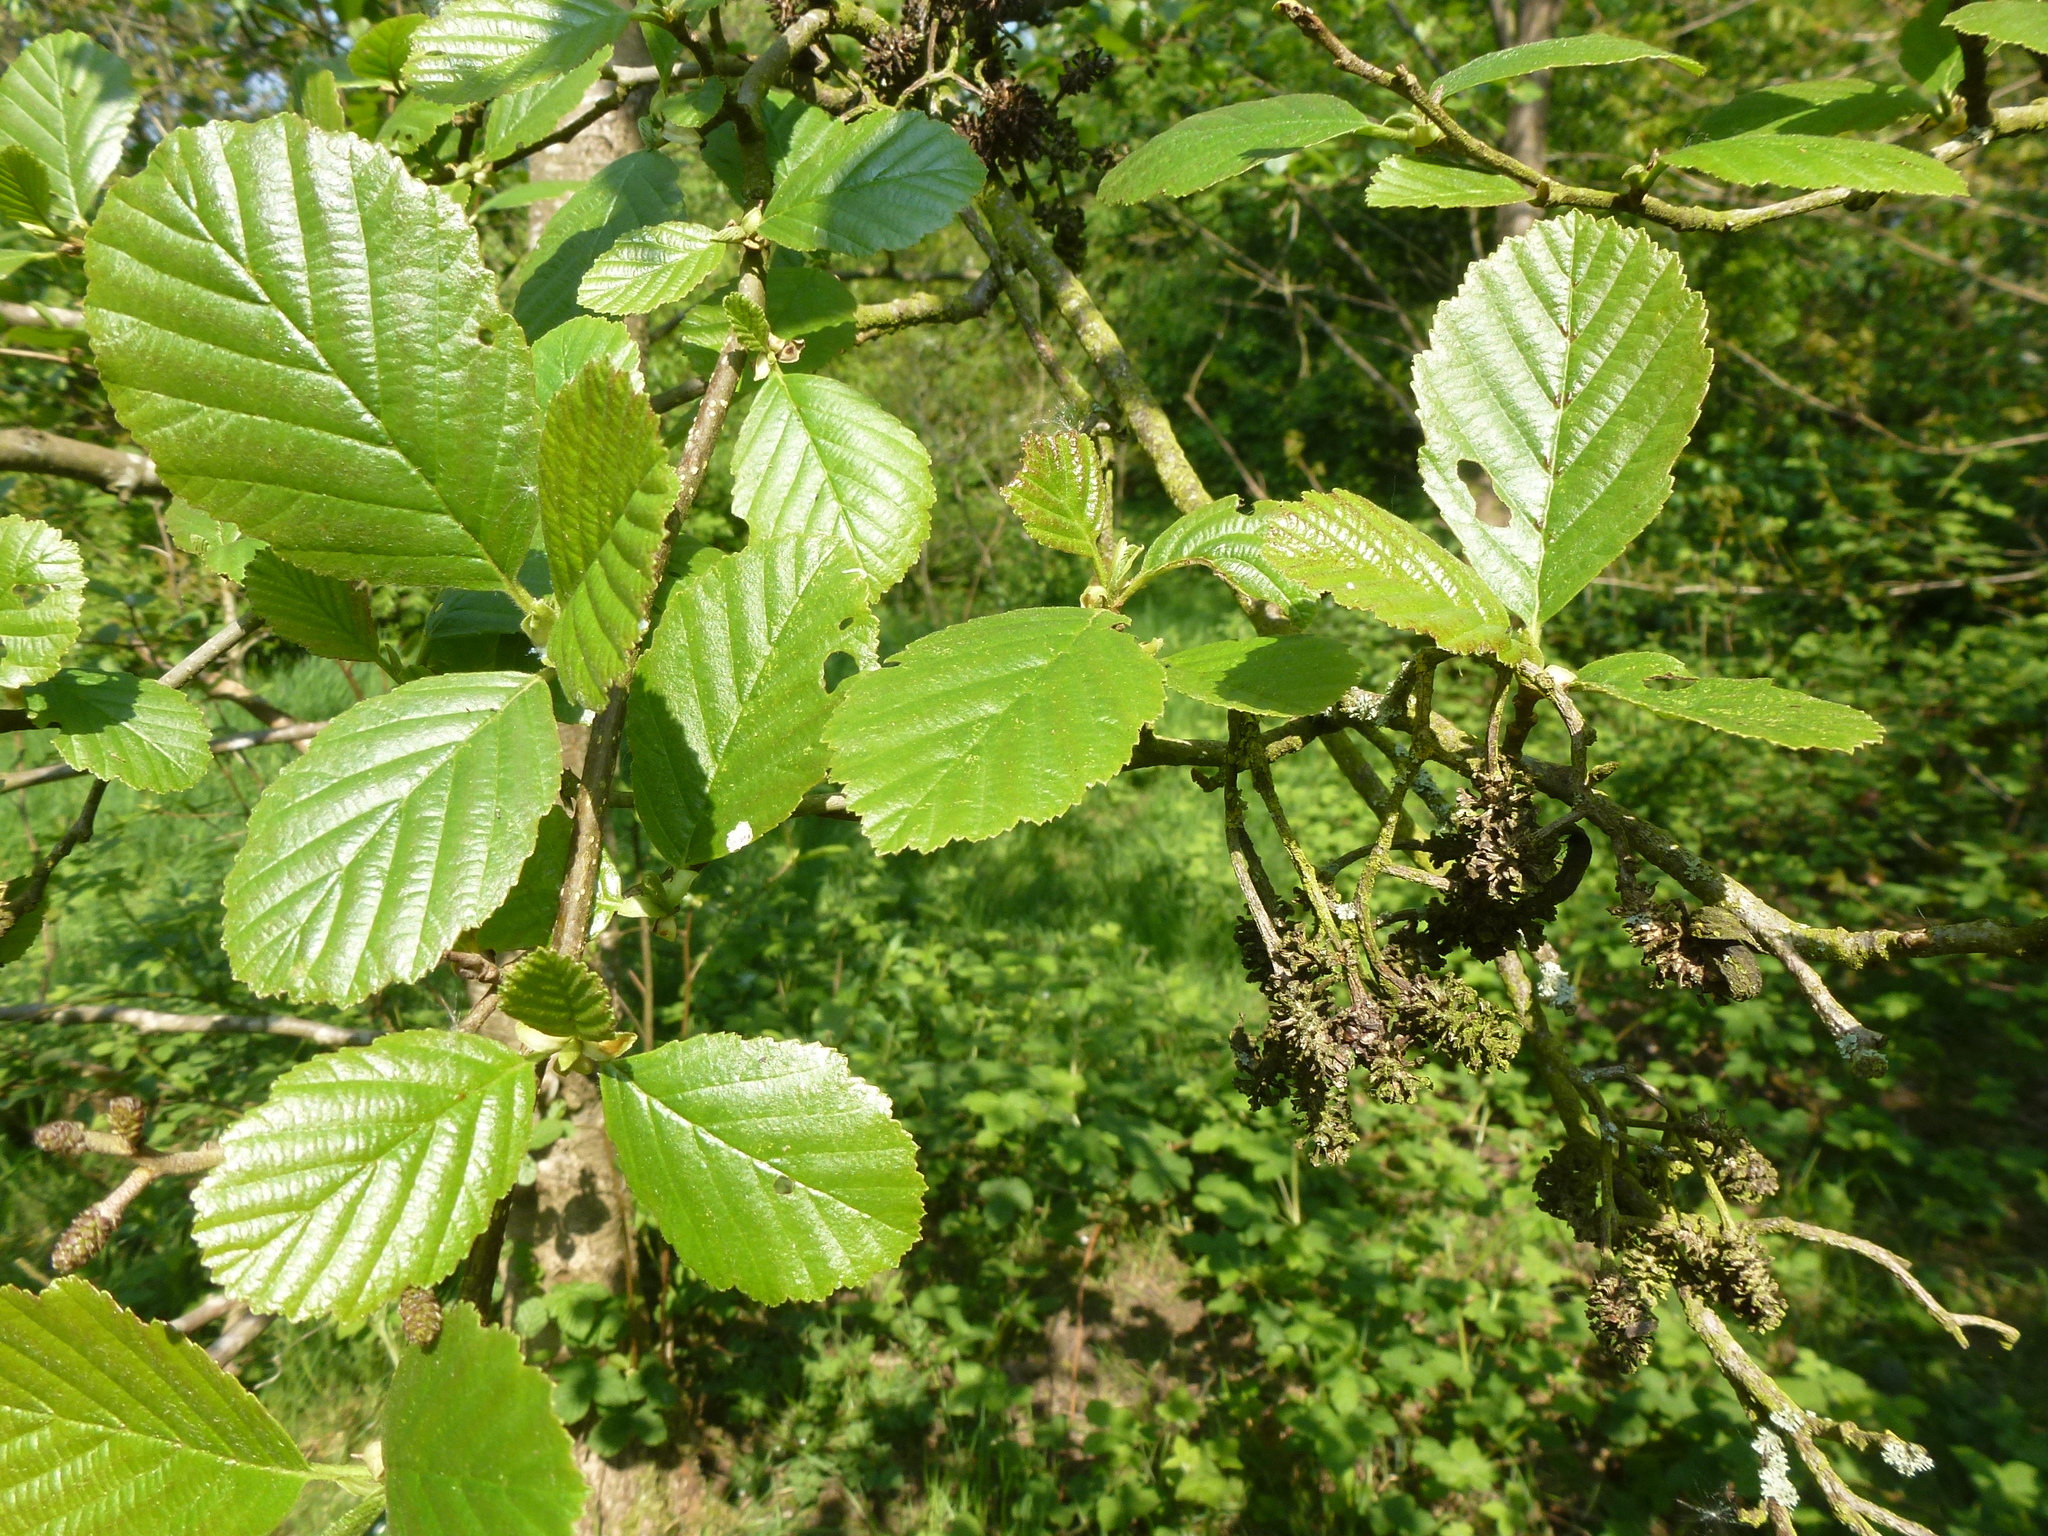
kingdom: Plantae
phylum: Tracheophyta
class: Magnoliopsida
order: Fagales
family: Betulaceae
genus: Alnus
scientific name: Alnus glutinosa
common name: Black alder
